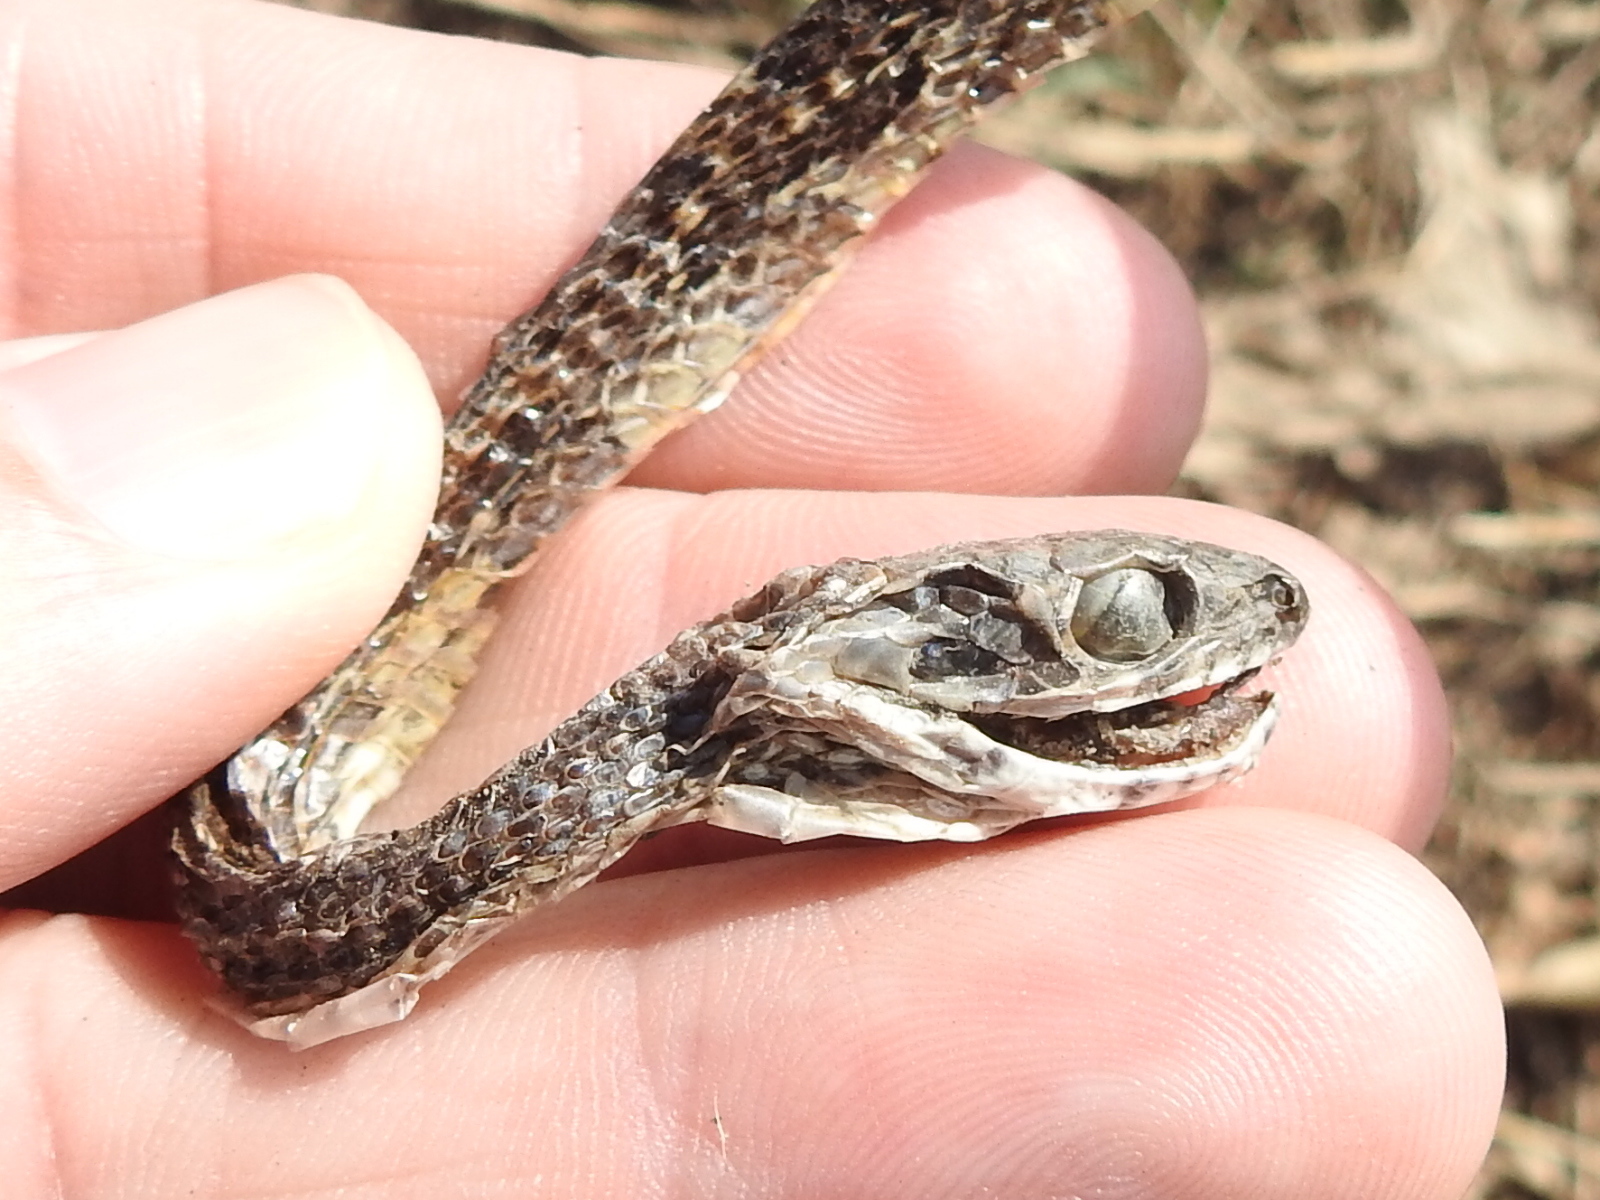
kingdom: Animalia
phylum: Chordata
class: Squamata
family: Colubridae
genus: Pantherophis
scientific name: Pantherophis obsoletus
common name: Black rat snake
